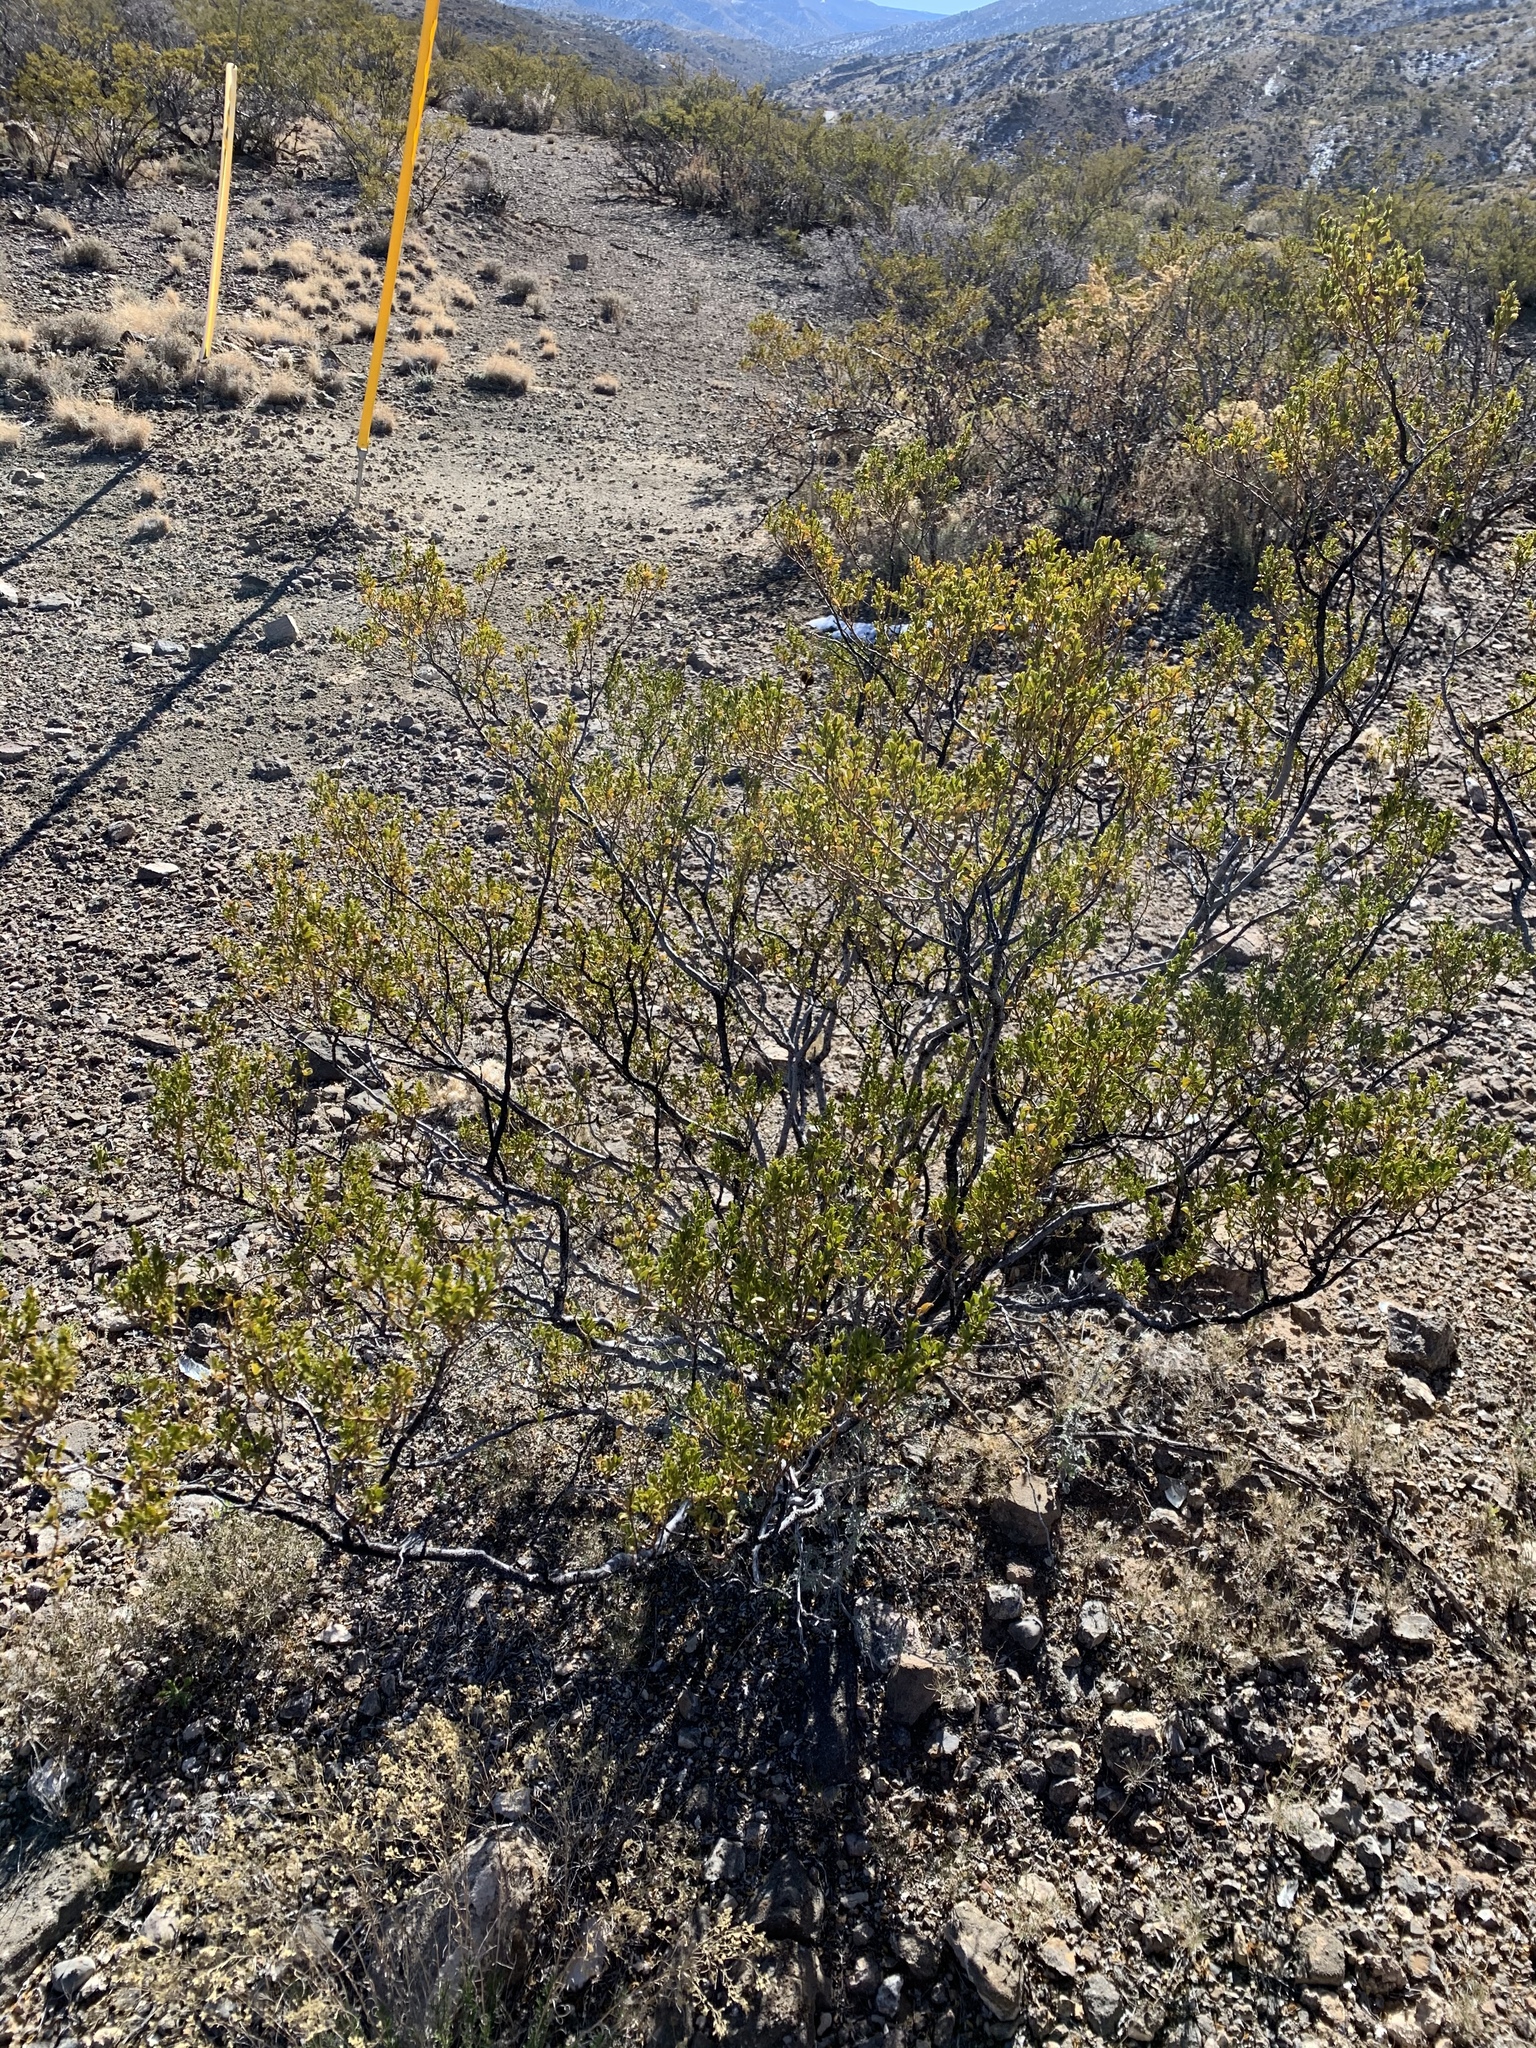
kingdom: Plantae
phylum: Tracheophyta
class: Magnoliopsida
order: Zygophyllales
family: Zygophyllaceae
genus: Larrea
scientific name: Larrea tridentata
